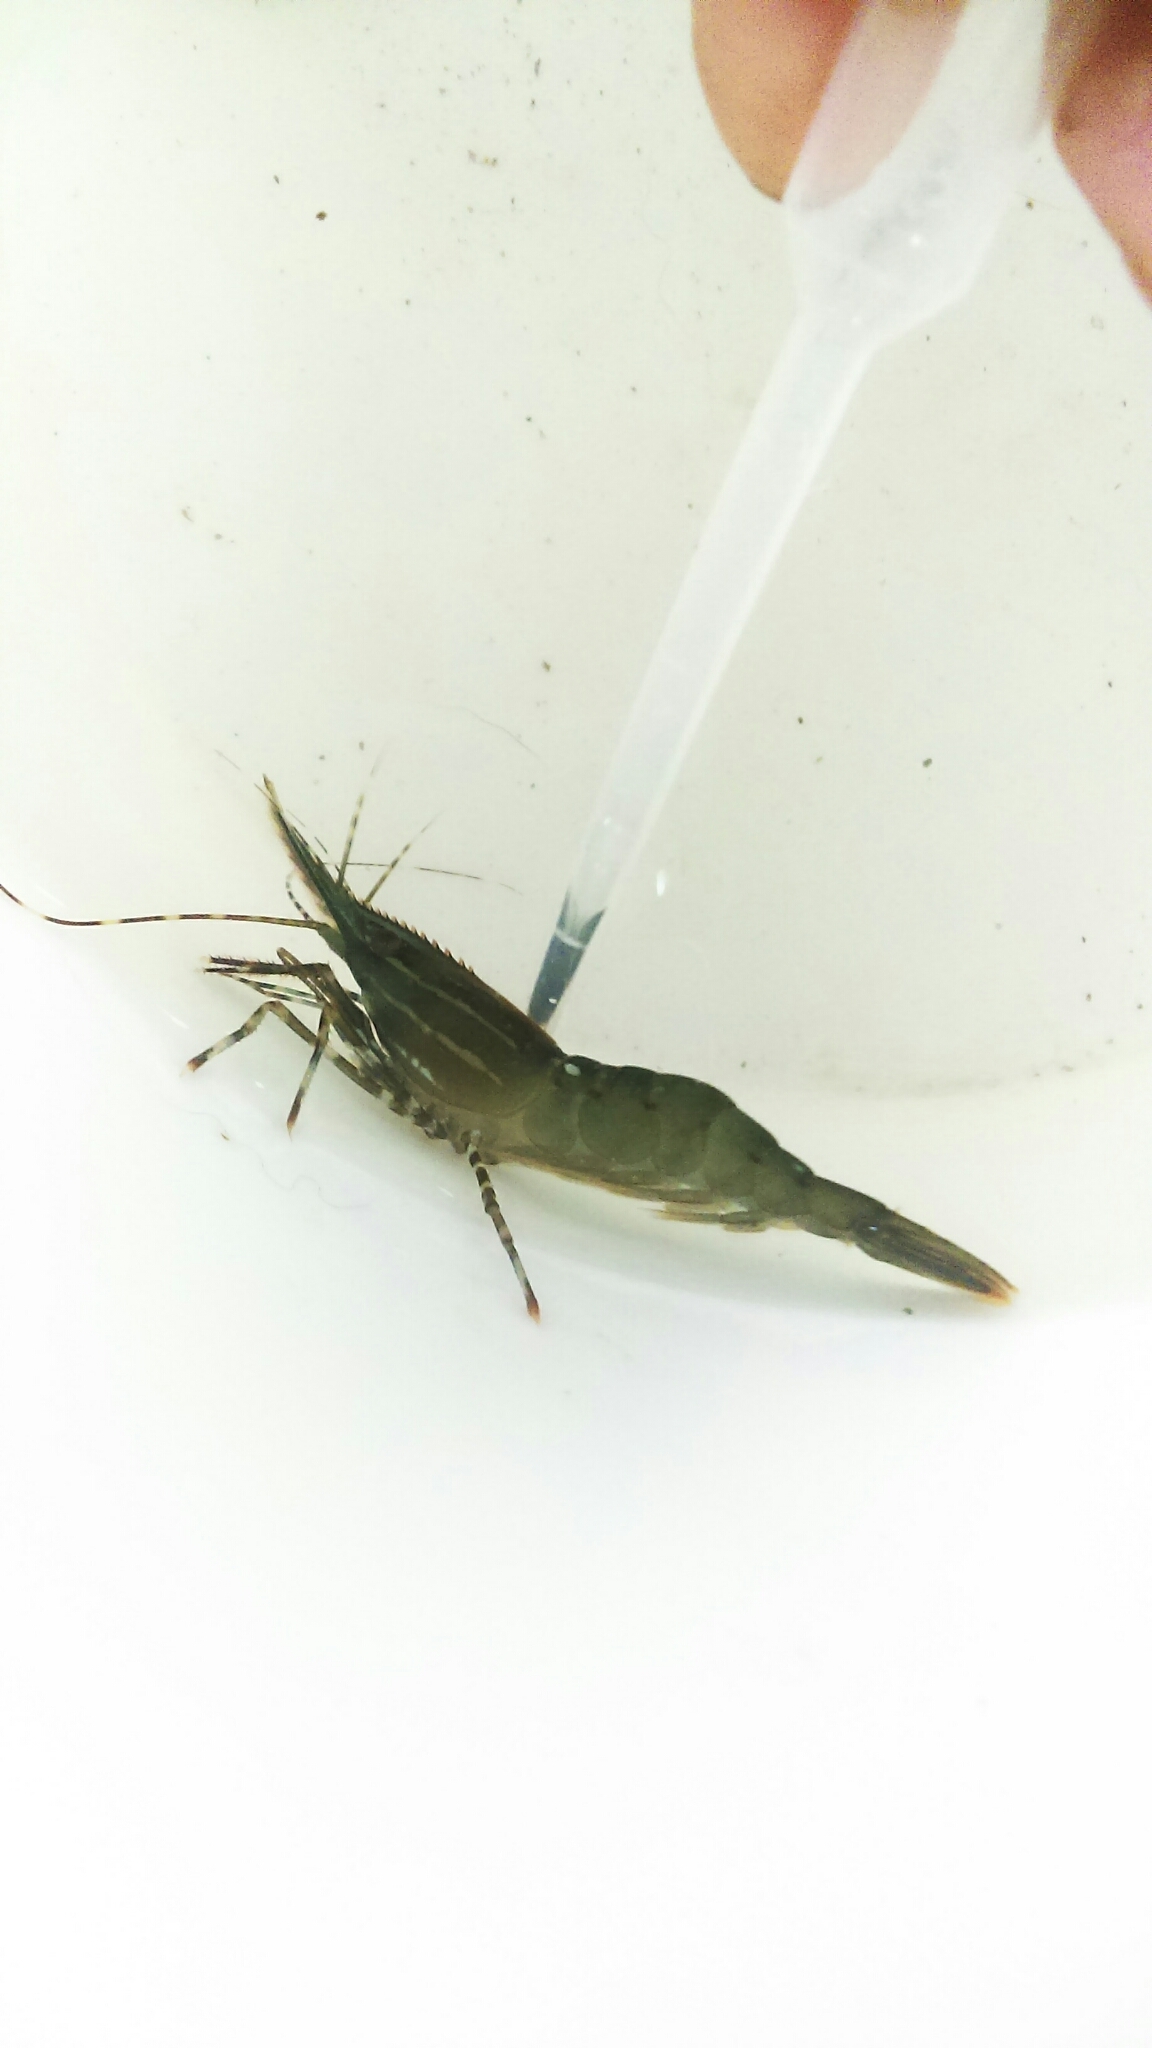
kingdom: Animalia
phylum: Arthropoda
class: Malacostraca
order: Decapoda
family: Pandalidae
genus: Pandalus
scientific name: Pandalus platyceros
